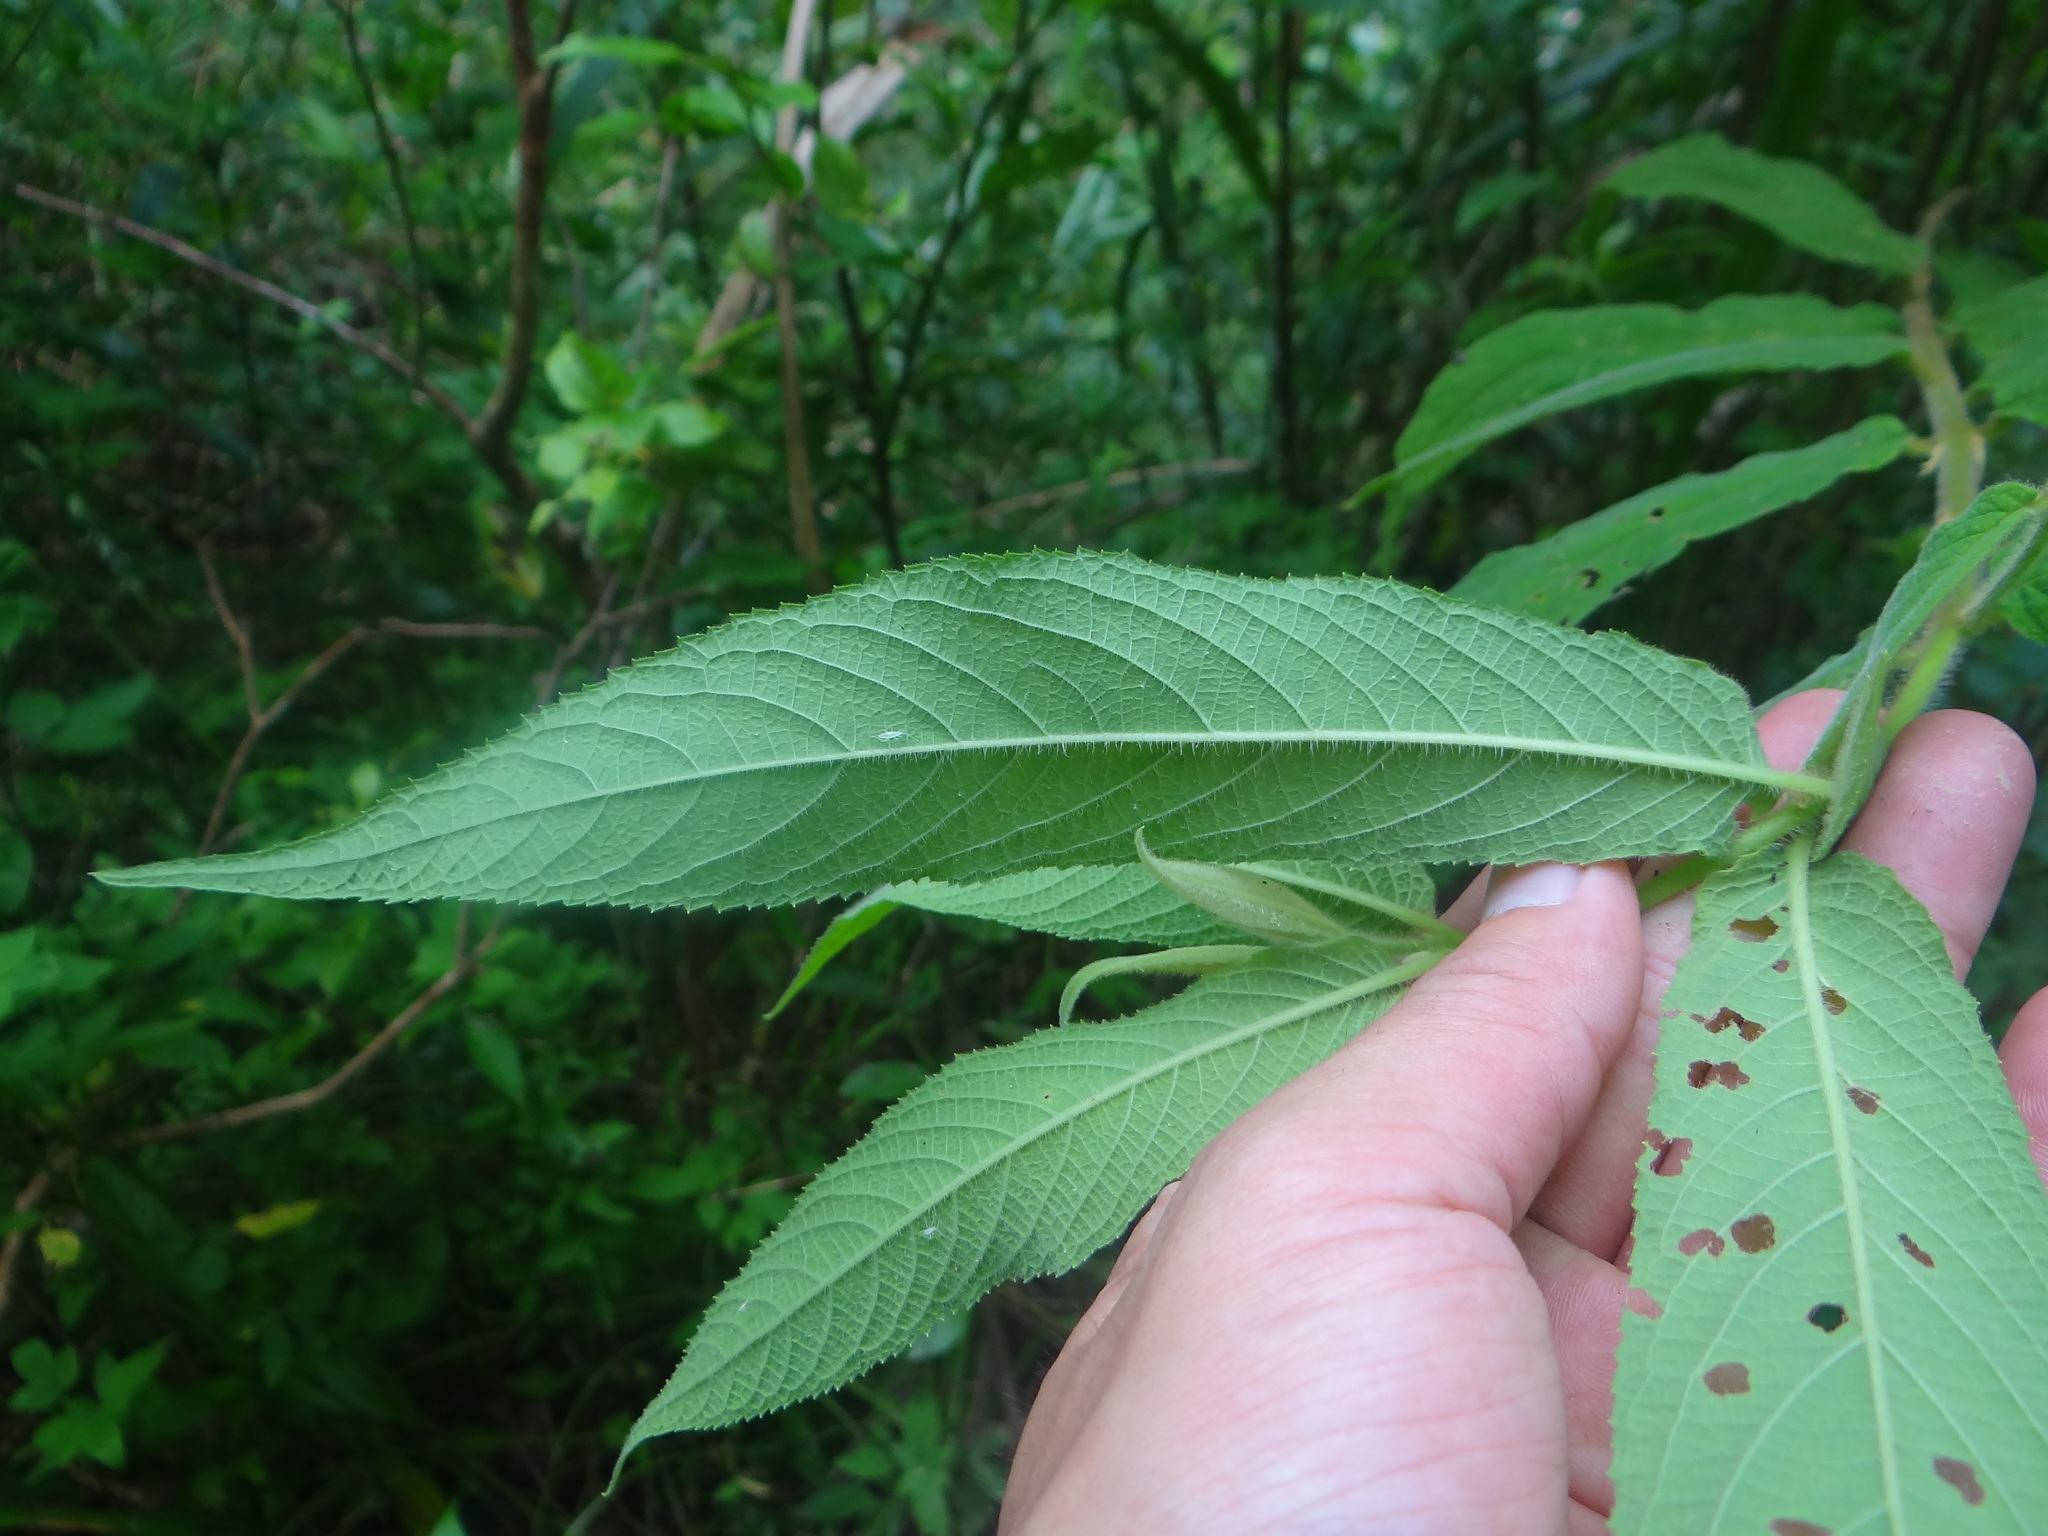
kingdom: Plantae
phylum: Tracheophyta
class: Magnoliopsida
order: Lamiales
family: Lamiaceae
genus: Callicarpa
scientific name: Callicarpa pilosissima
